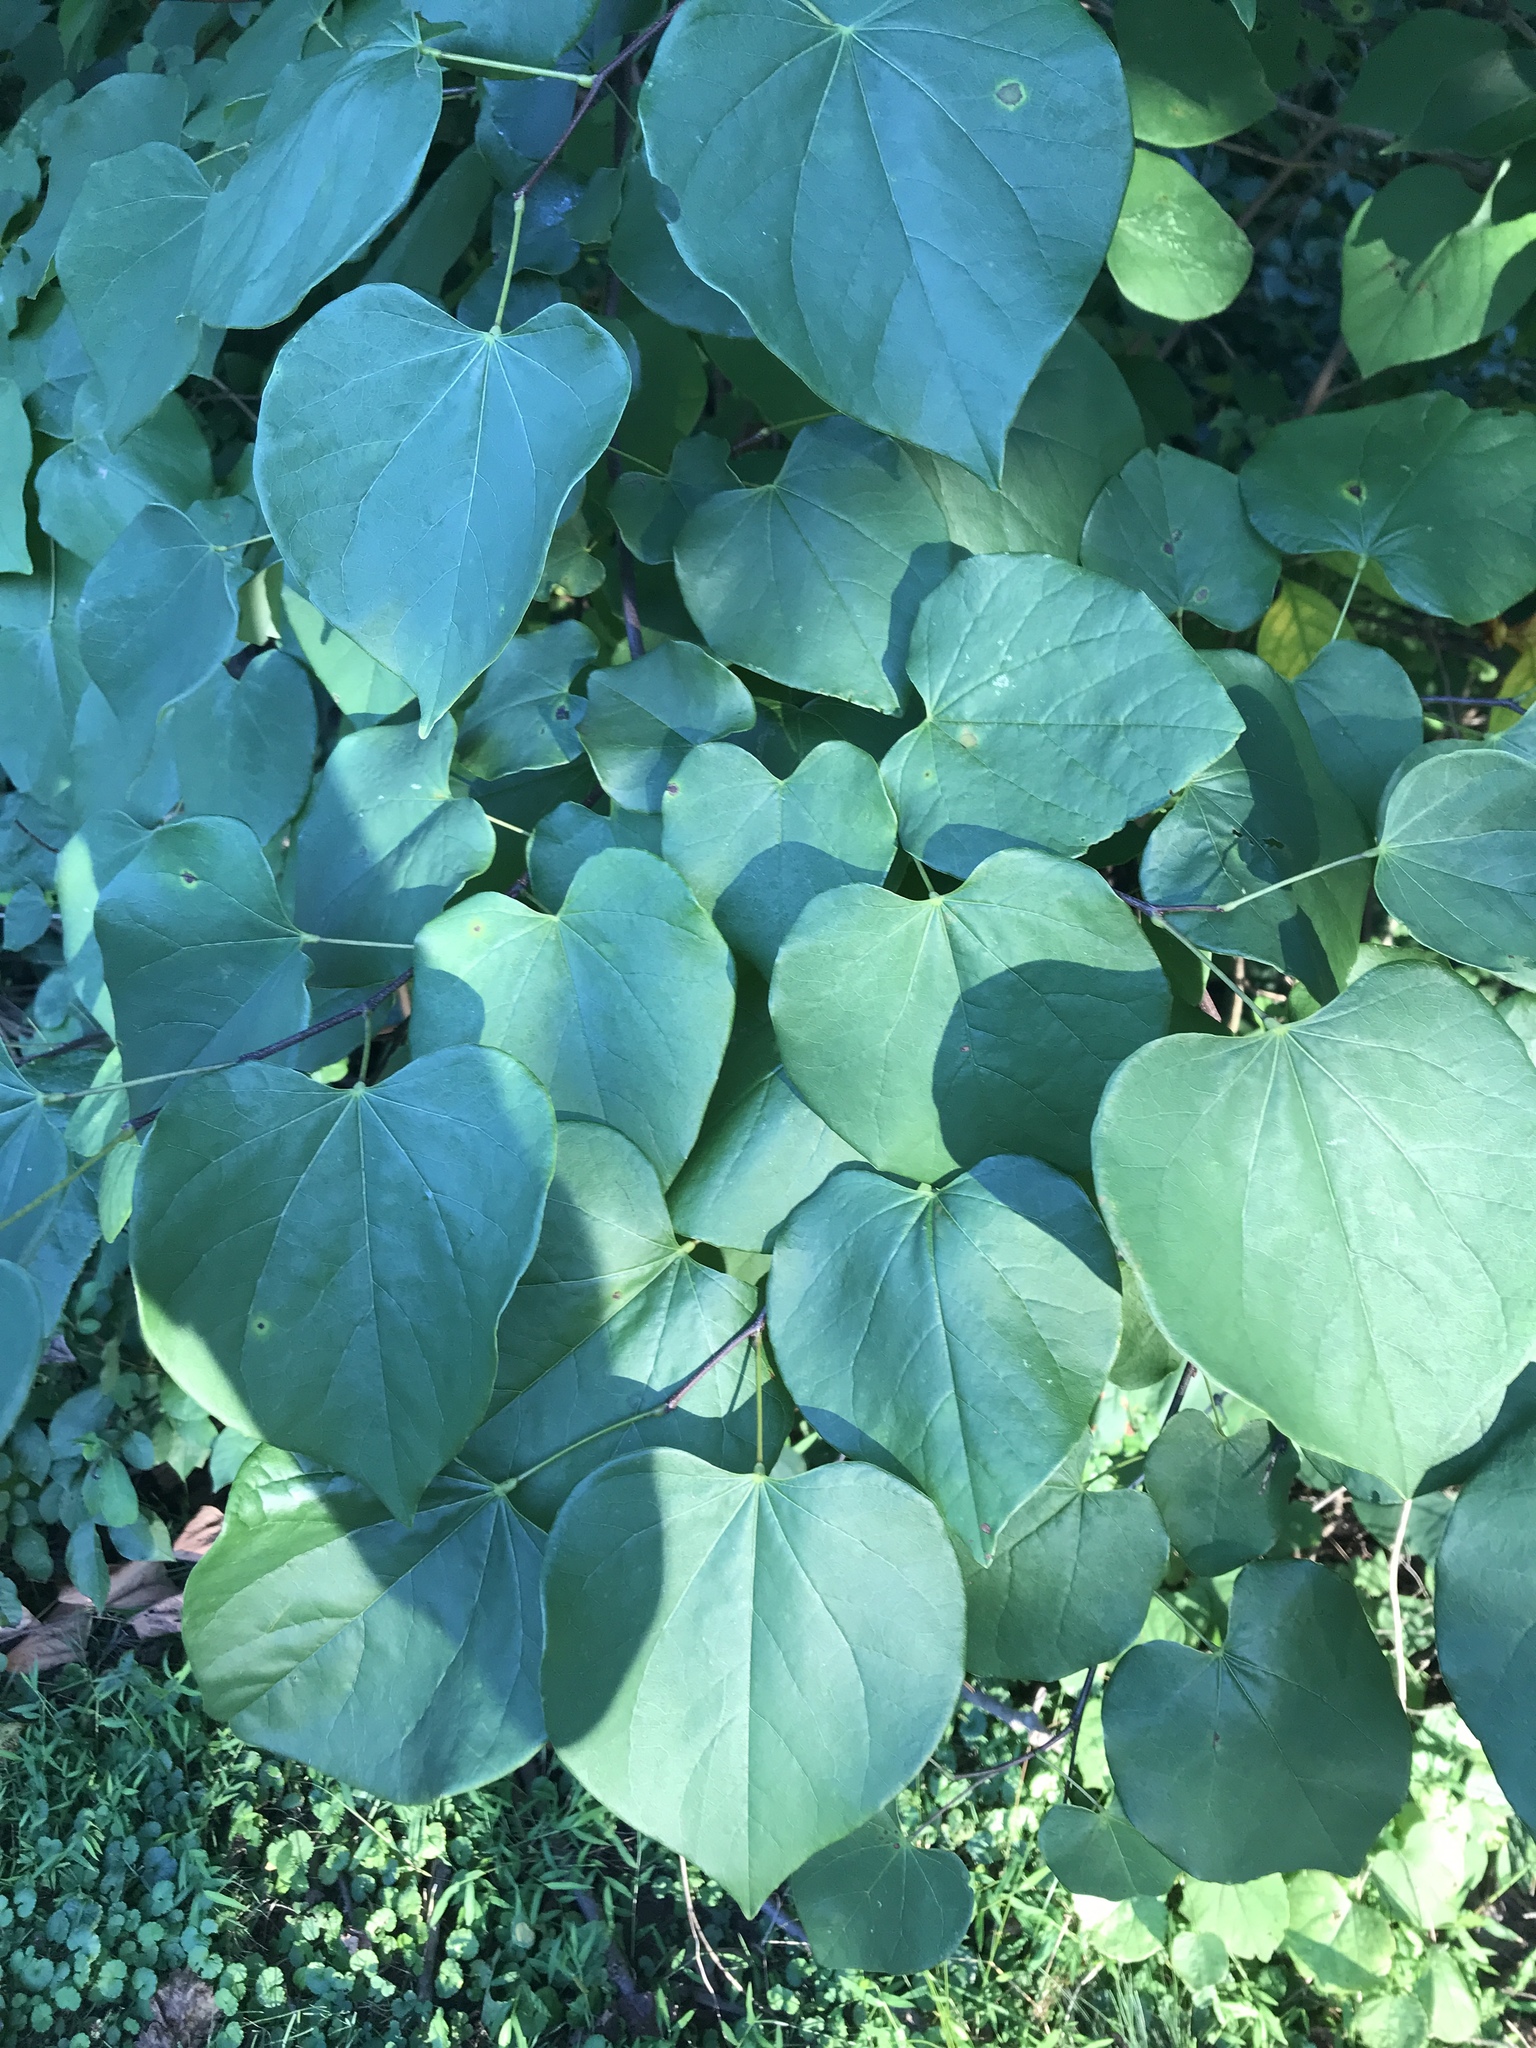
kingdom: Plantae
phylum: Tracheophyta
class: Magnoliopsida
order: Fabales
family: Fabaceae
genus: Cercis
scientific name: Cercis canadensis
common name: Eastern redbud
